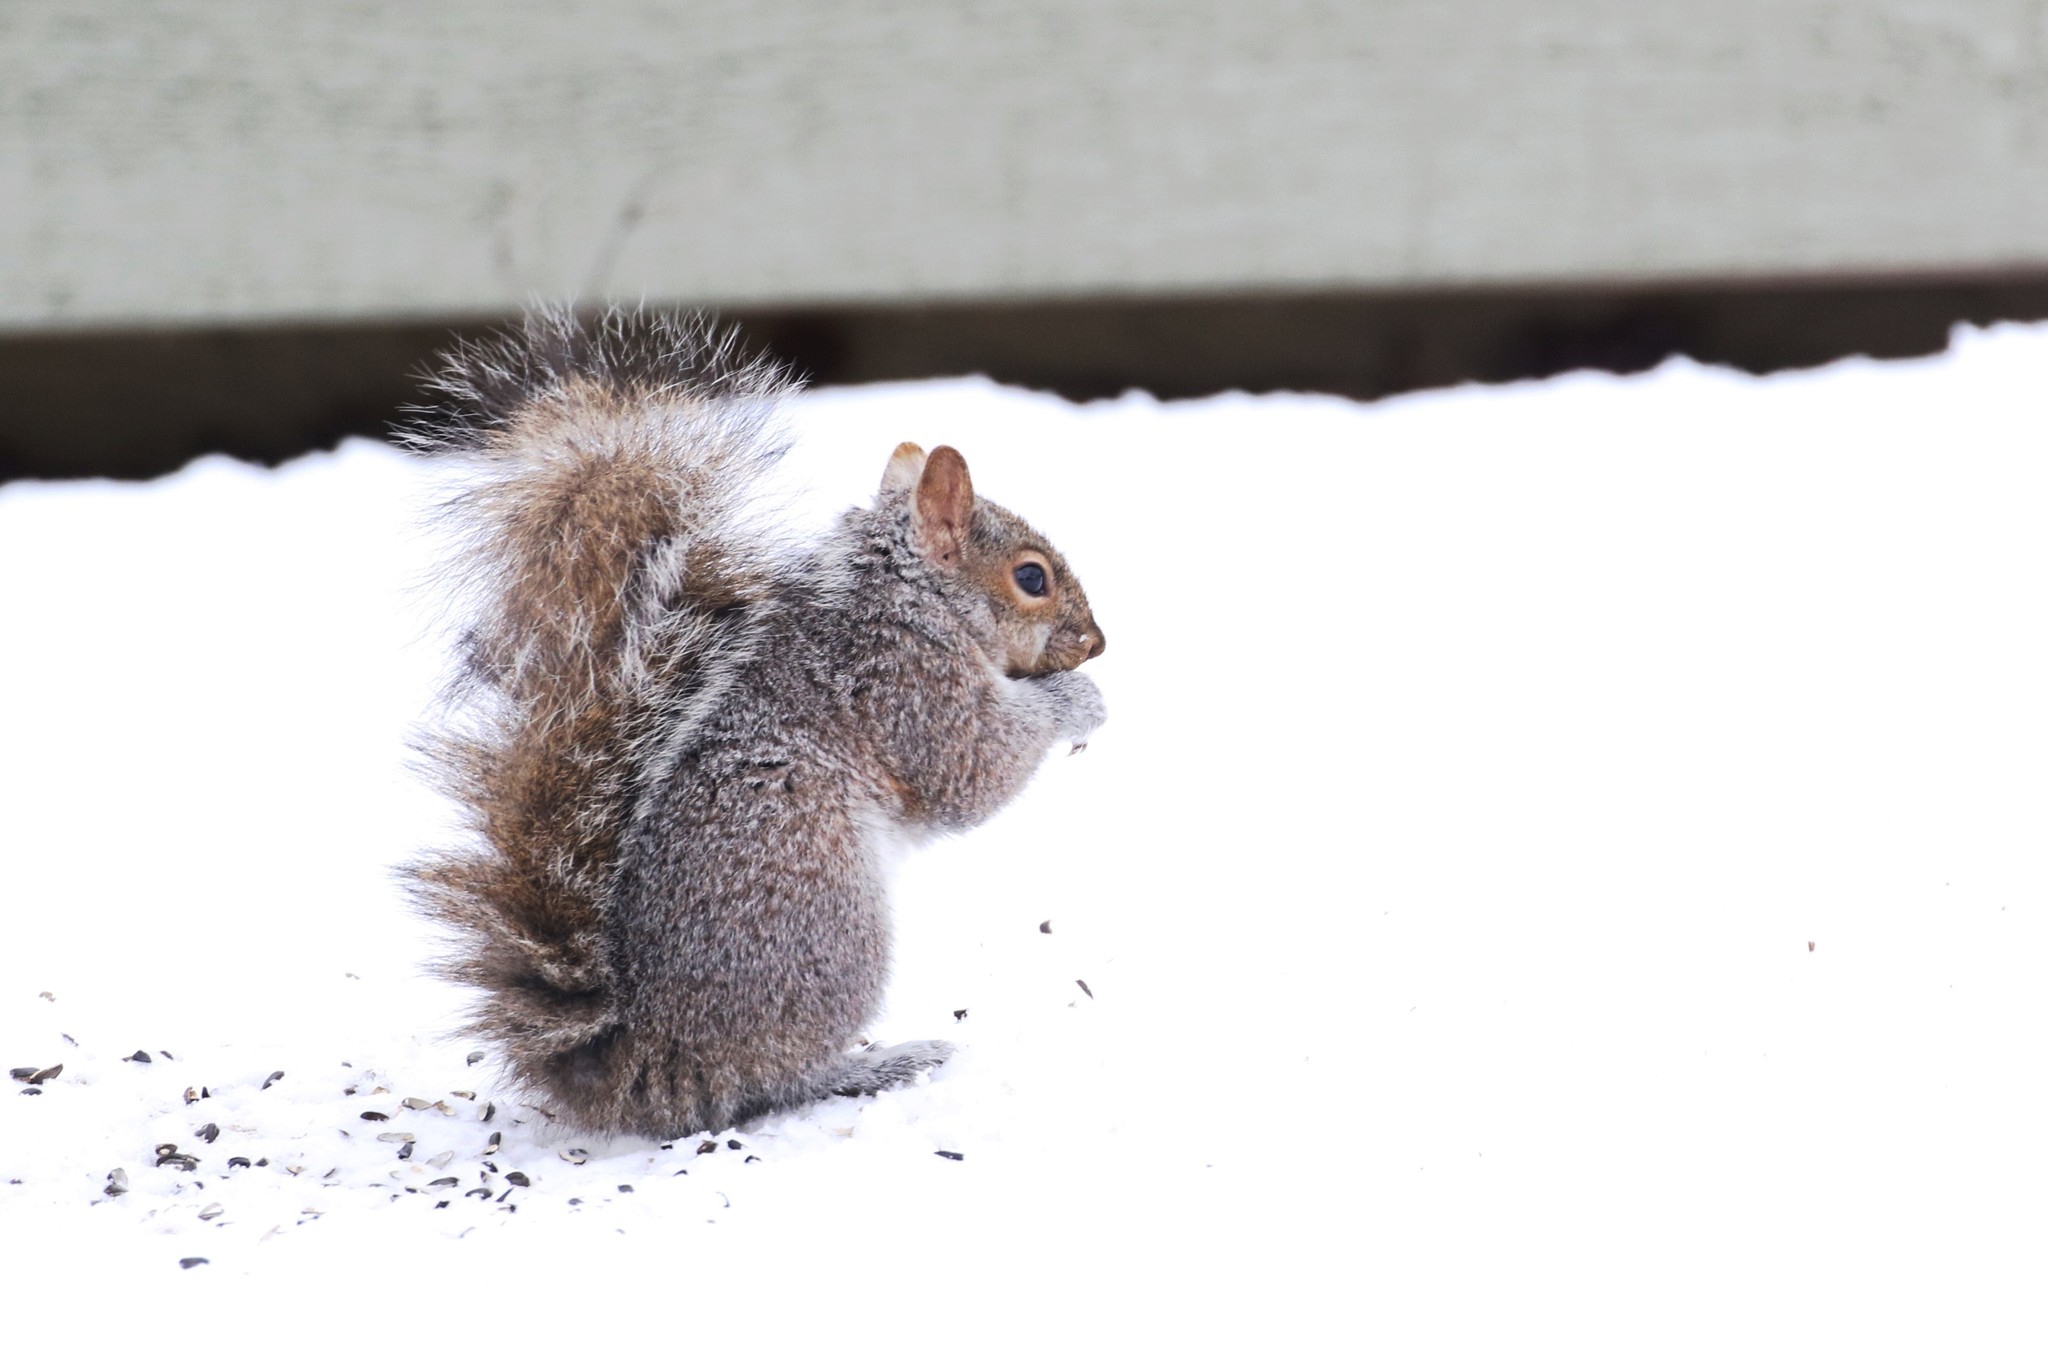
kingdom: Animalia
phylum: Chordata
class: Mammalia
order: Rodentia
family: Sciuridae
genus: Sciurus
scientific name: Sciurus carolinensis
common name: Eastern gray squirrel
